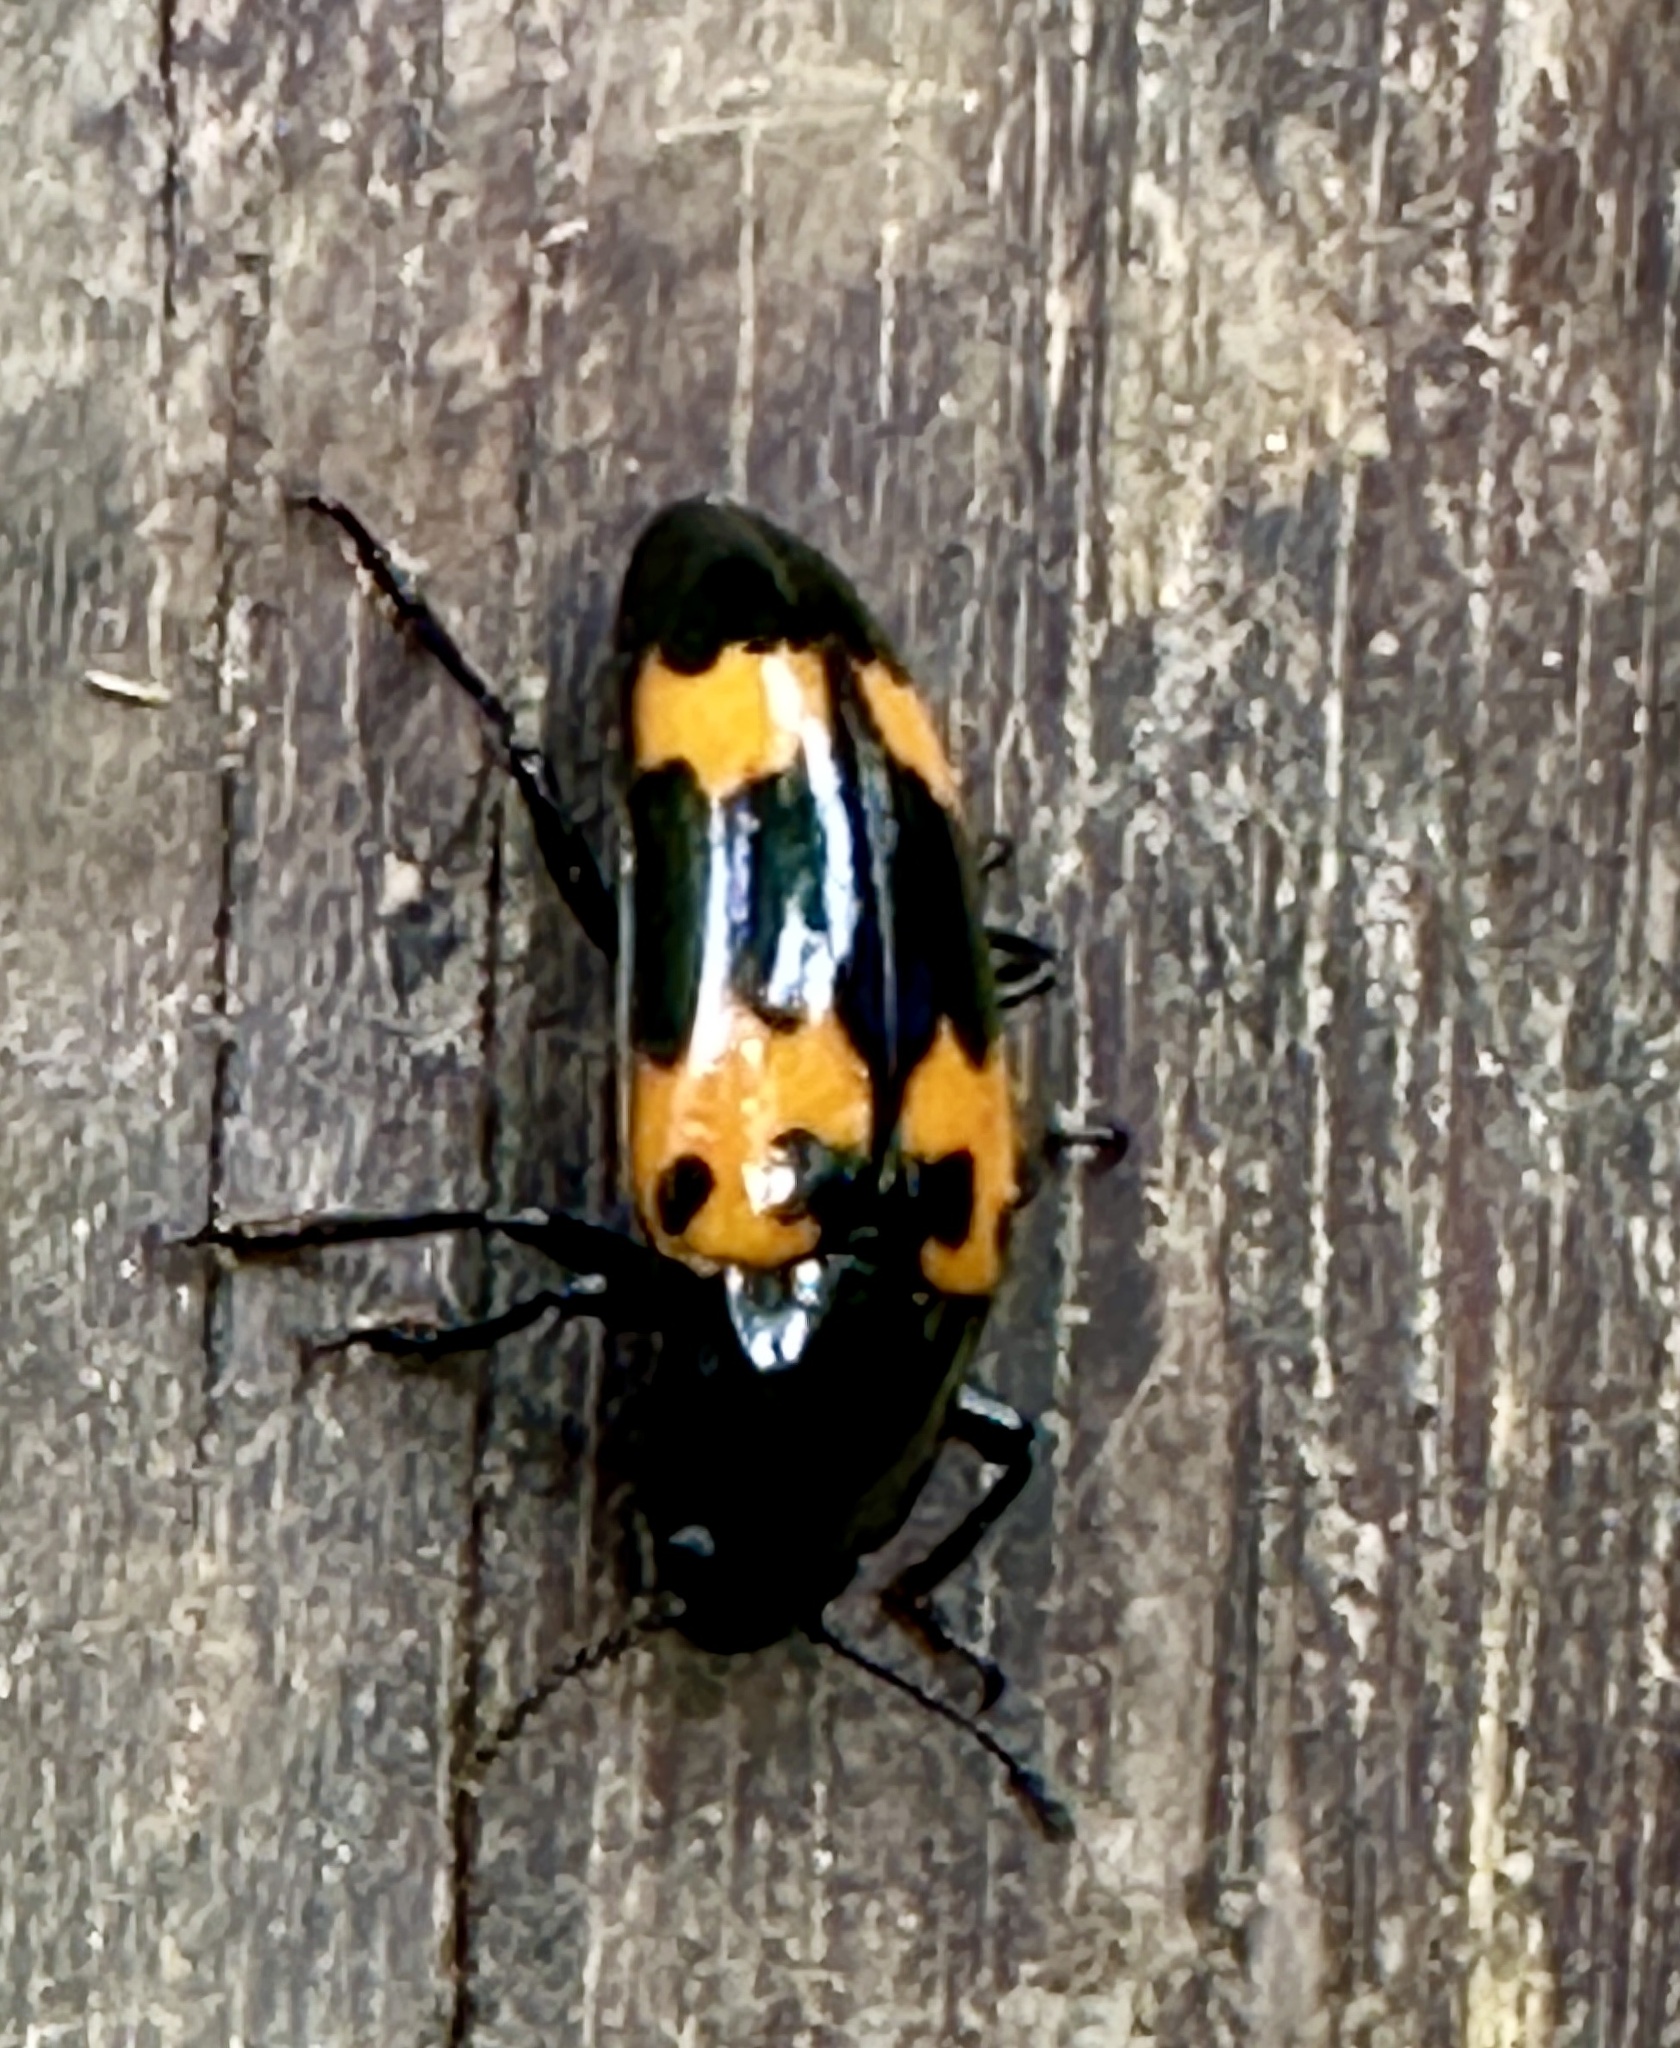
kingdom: Animalia
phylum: Arthropoda
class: Insecta
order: Coleoptera
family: Erotylidae
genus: Megalodacne
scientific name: Megalodacne heros
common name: Pleasing fungus beetle
